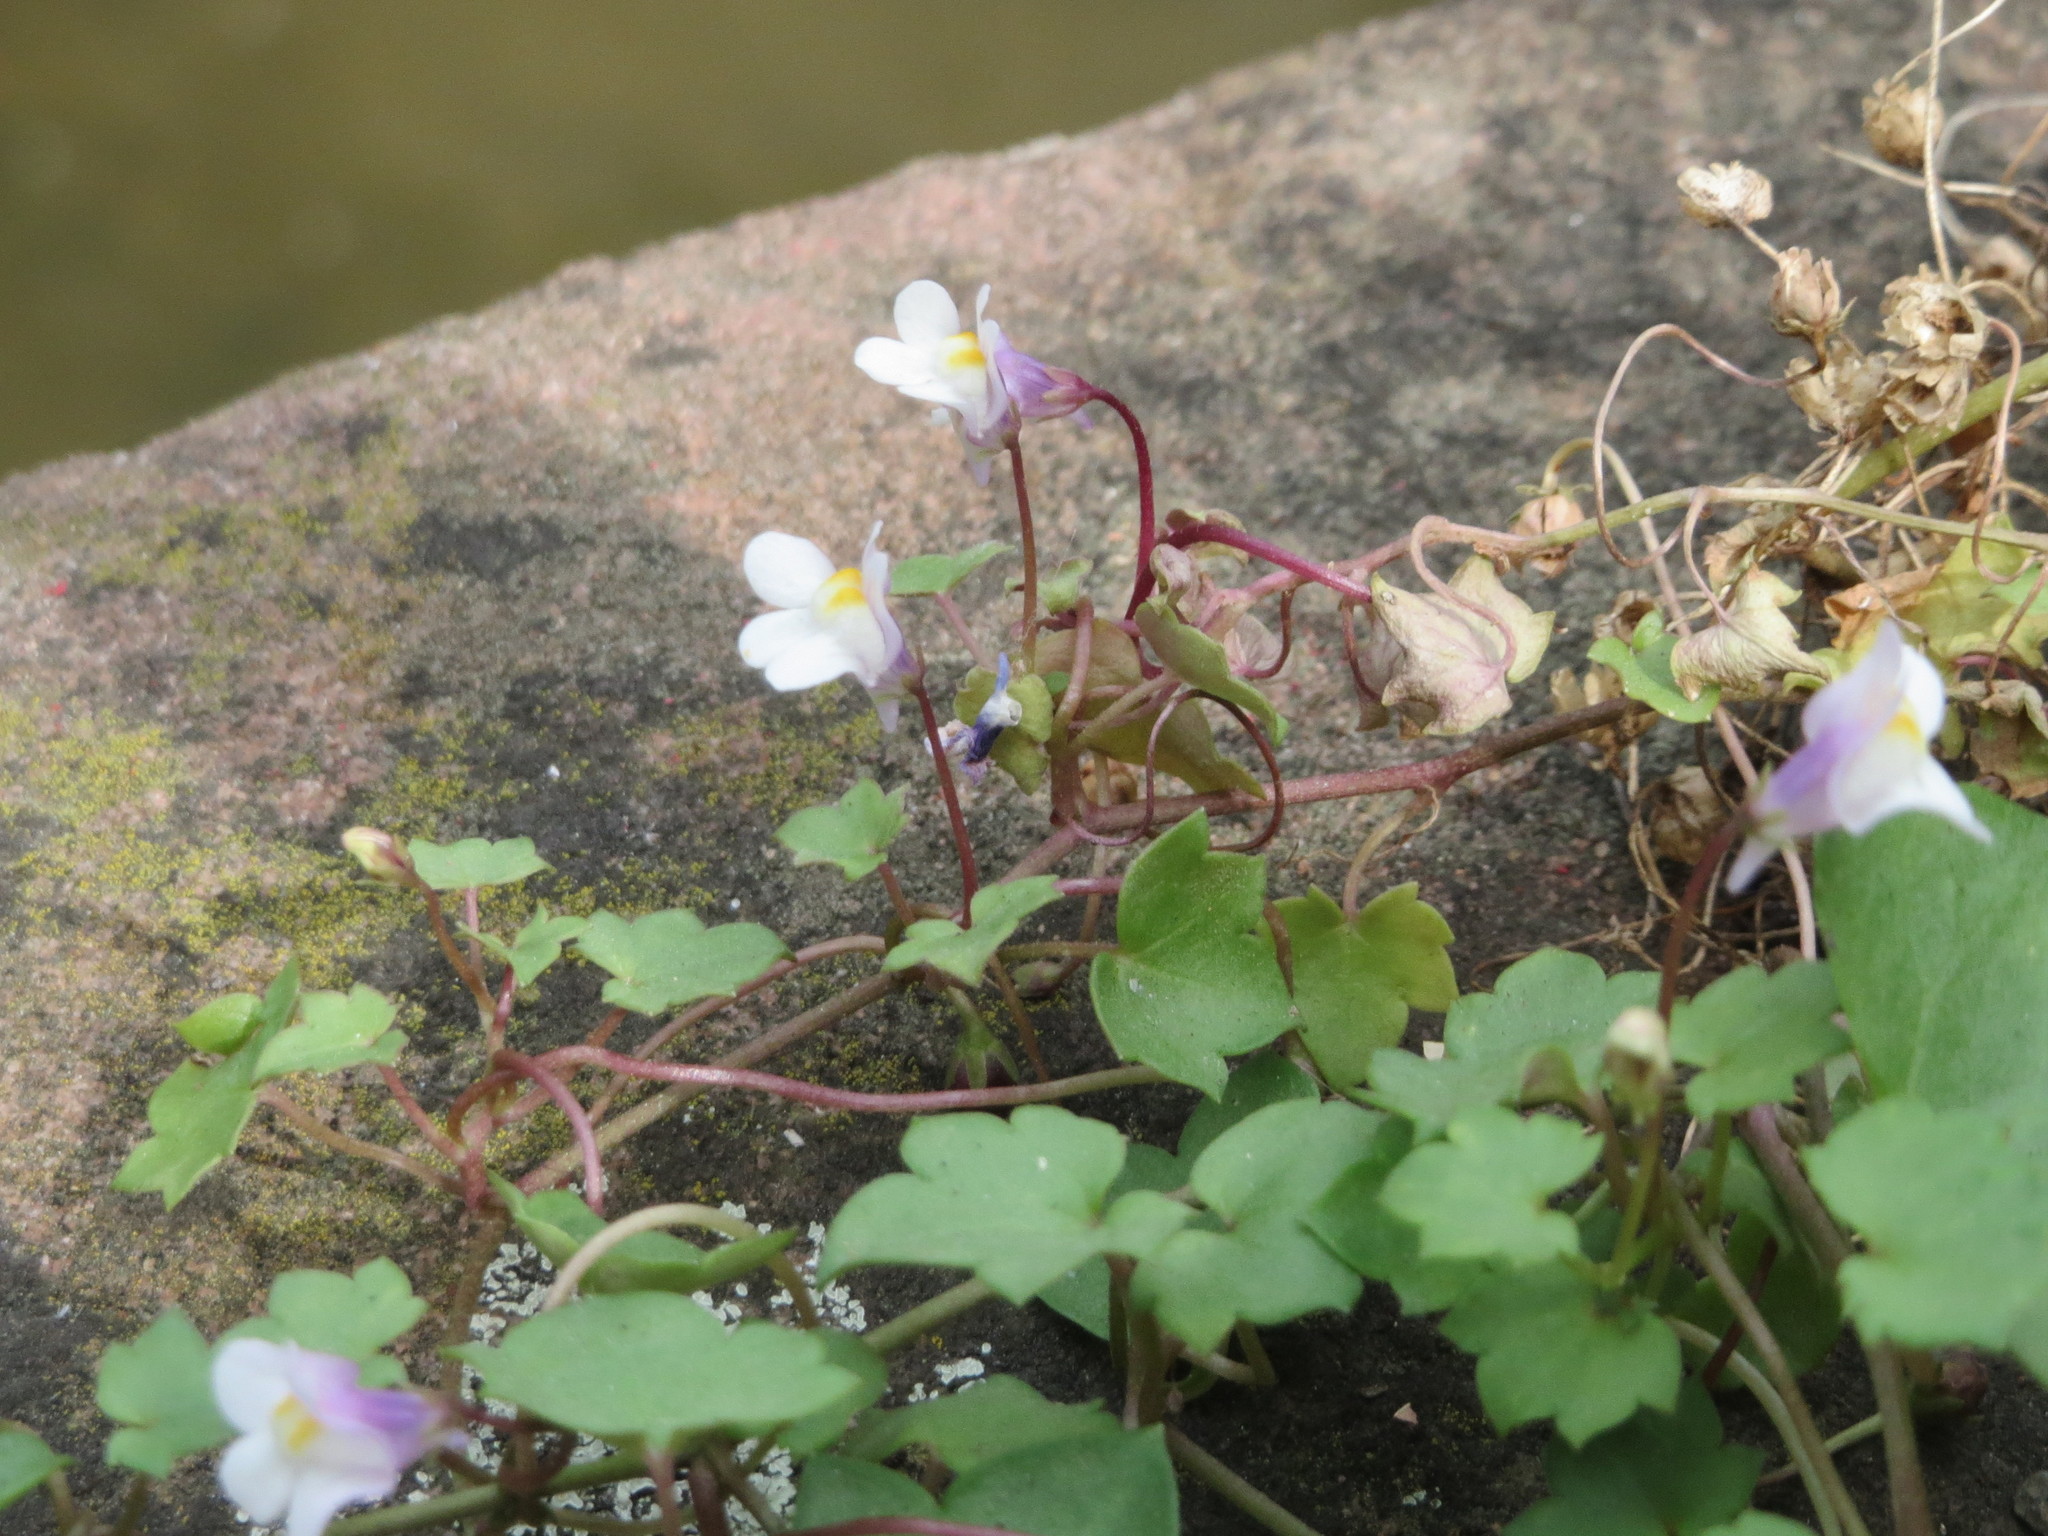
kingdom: Plantae
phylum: Tracheophyta
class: Magnoliopsida
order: Lamiales
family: Plantaginaceae
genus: Cymbalaria
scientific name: Cymbalaria muralis
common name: Ivy-leaved toadflax
